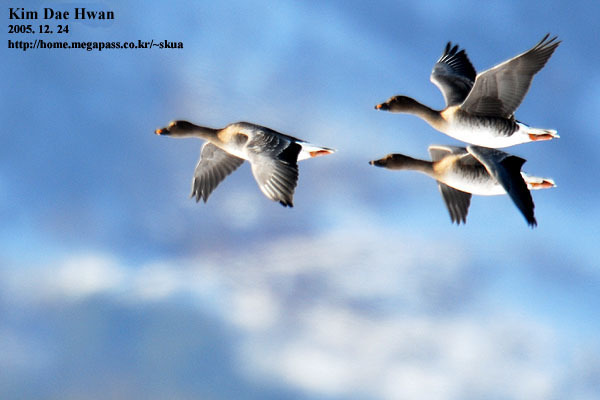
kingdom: Animalia
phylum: Chordata
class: Aves
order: Anseriformes
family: Anatidae
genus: Anser
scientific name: Anser fabalis
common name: Bean goose
